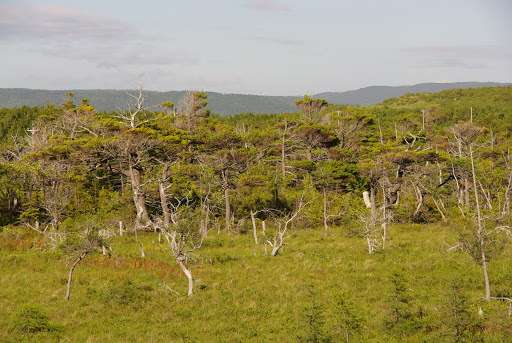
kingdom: Plantae
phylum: Tracheophyta
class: Pinopsida
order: Pinales
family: Pinaceae
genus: Pinus
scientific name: Pinus strobus
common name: Weymouth pine
